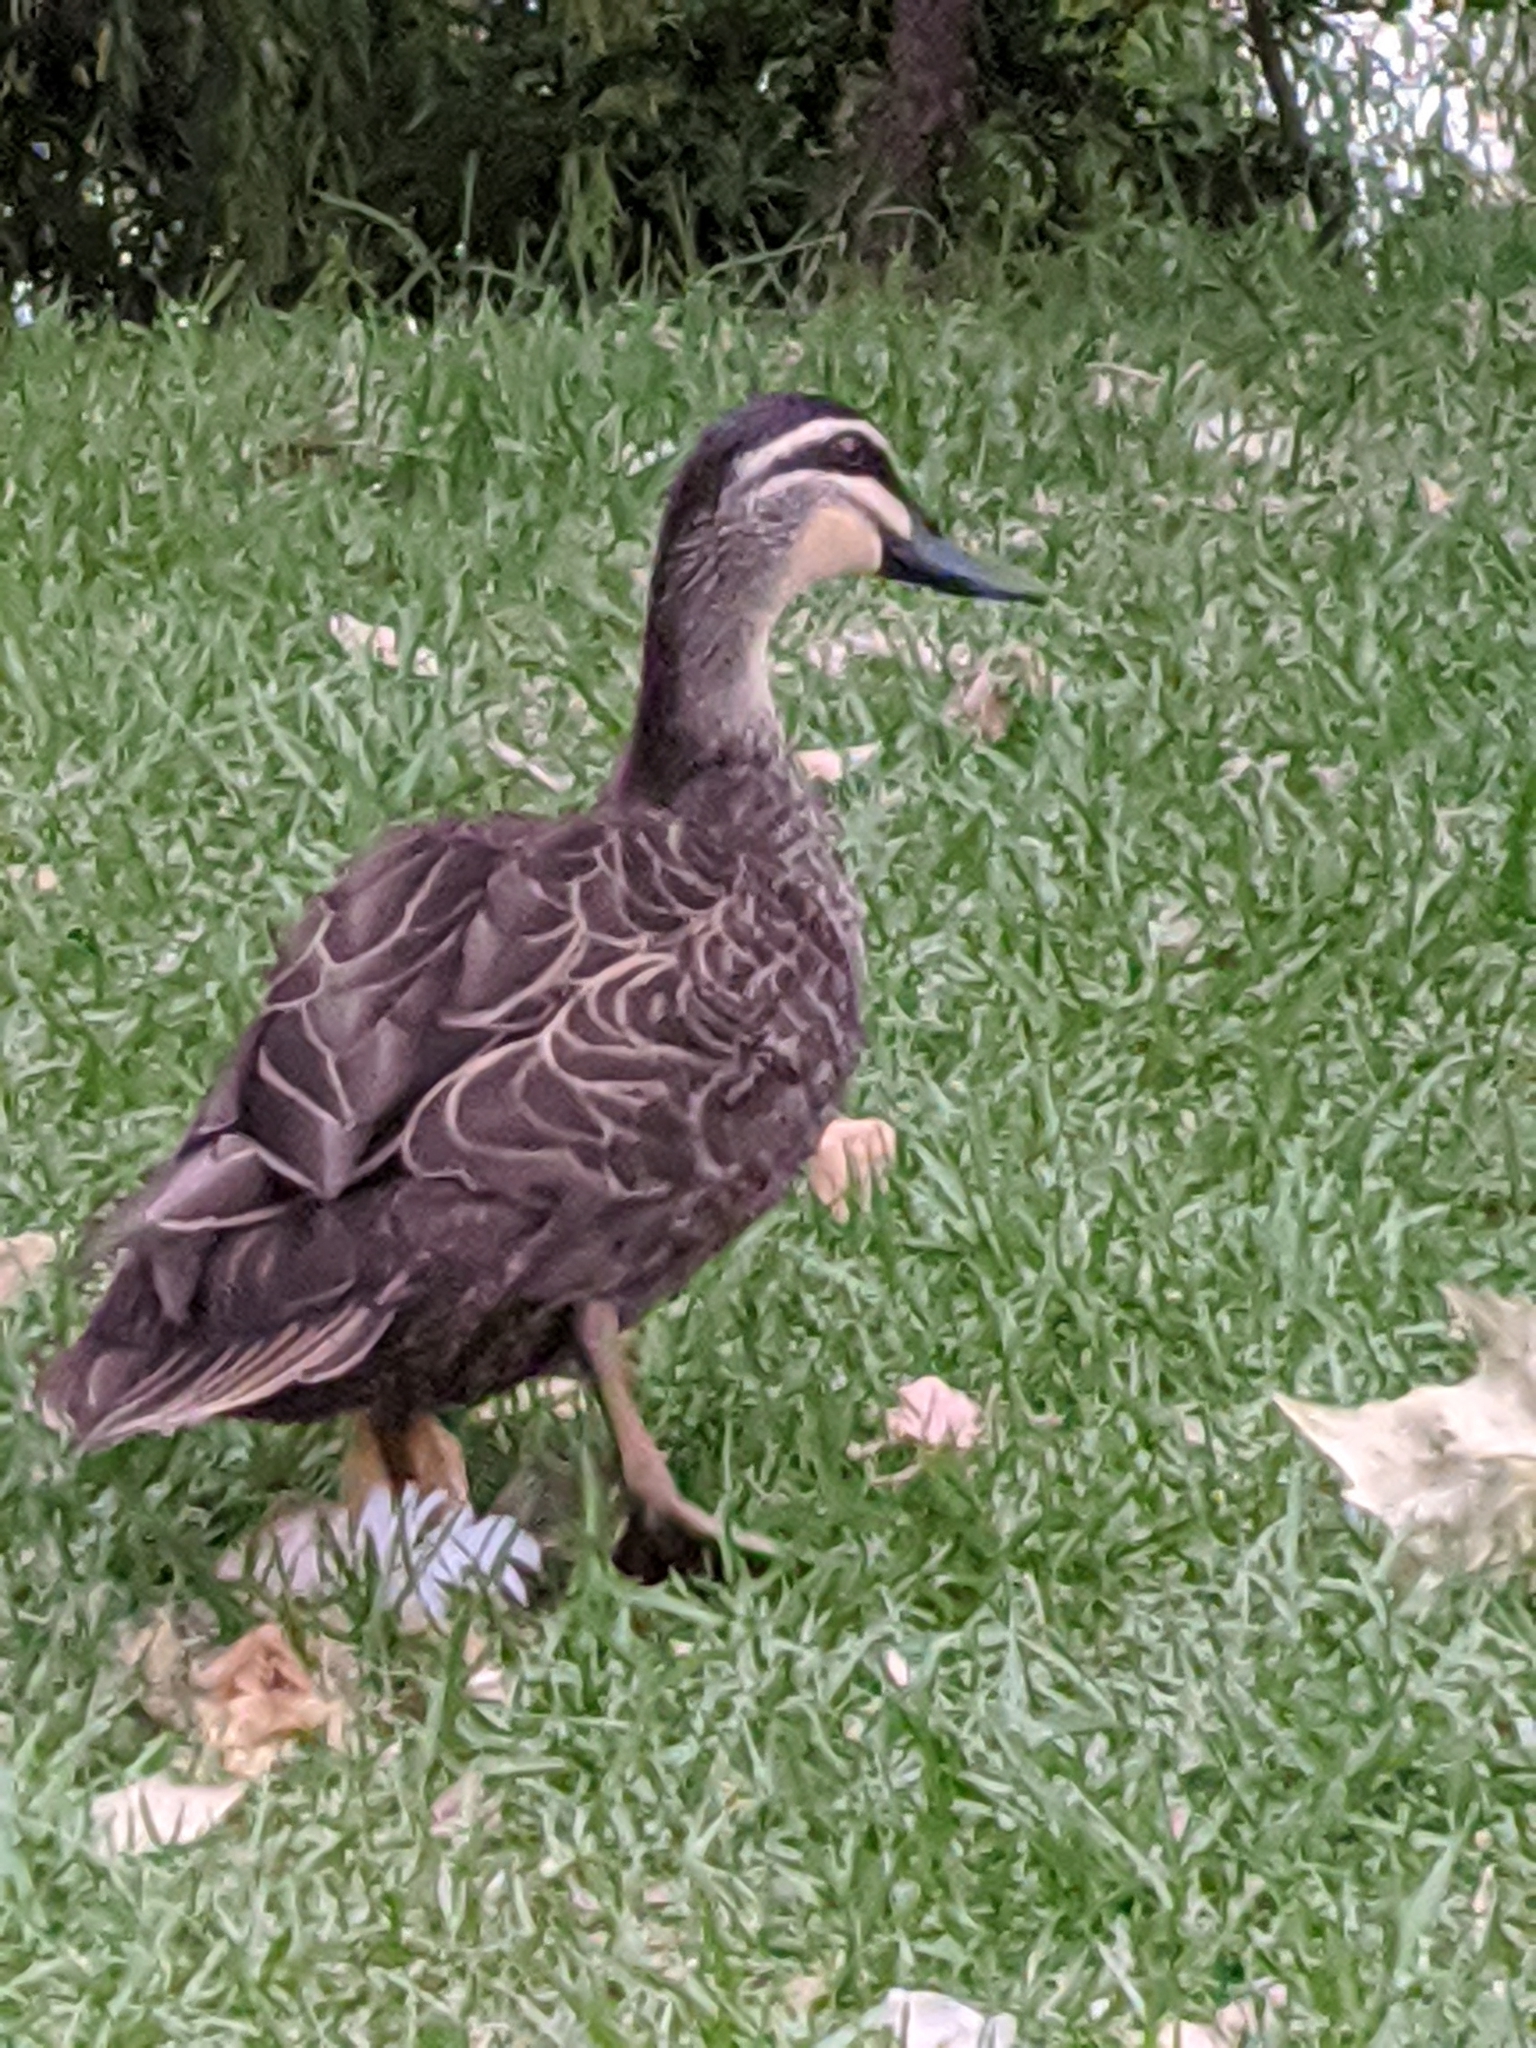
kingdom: Animalia
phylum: Chordata
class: Aves
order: Anseriformes
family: Anatidae
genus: Anas
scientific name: Anas superciliosa
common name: Pacific black duck
